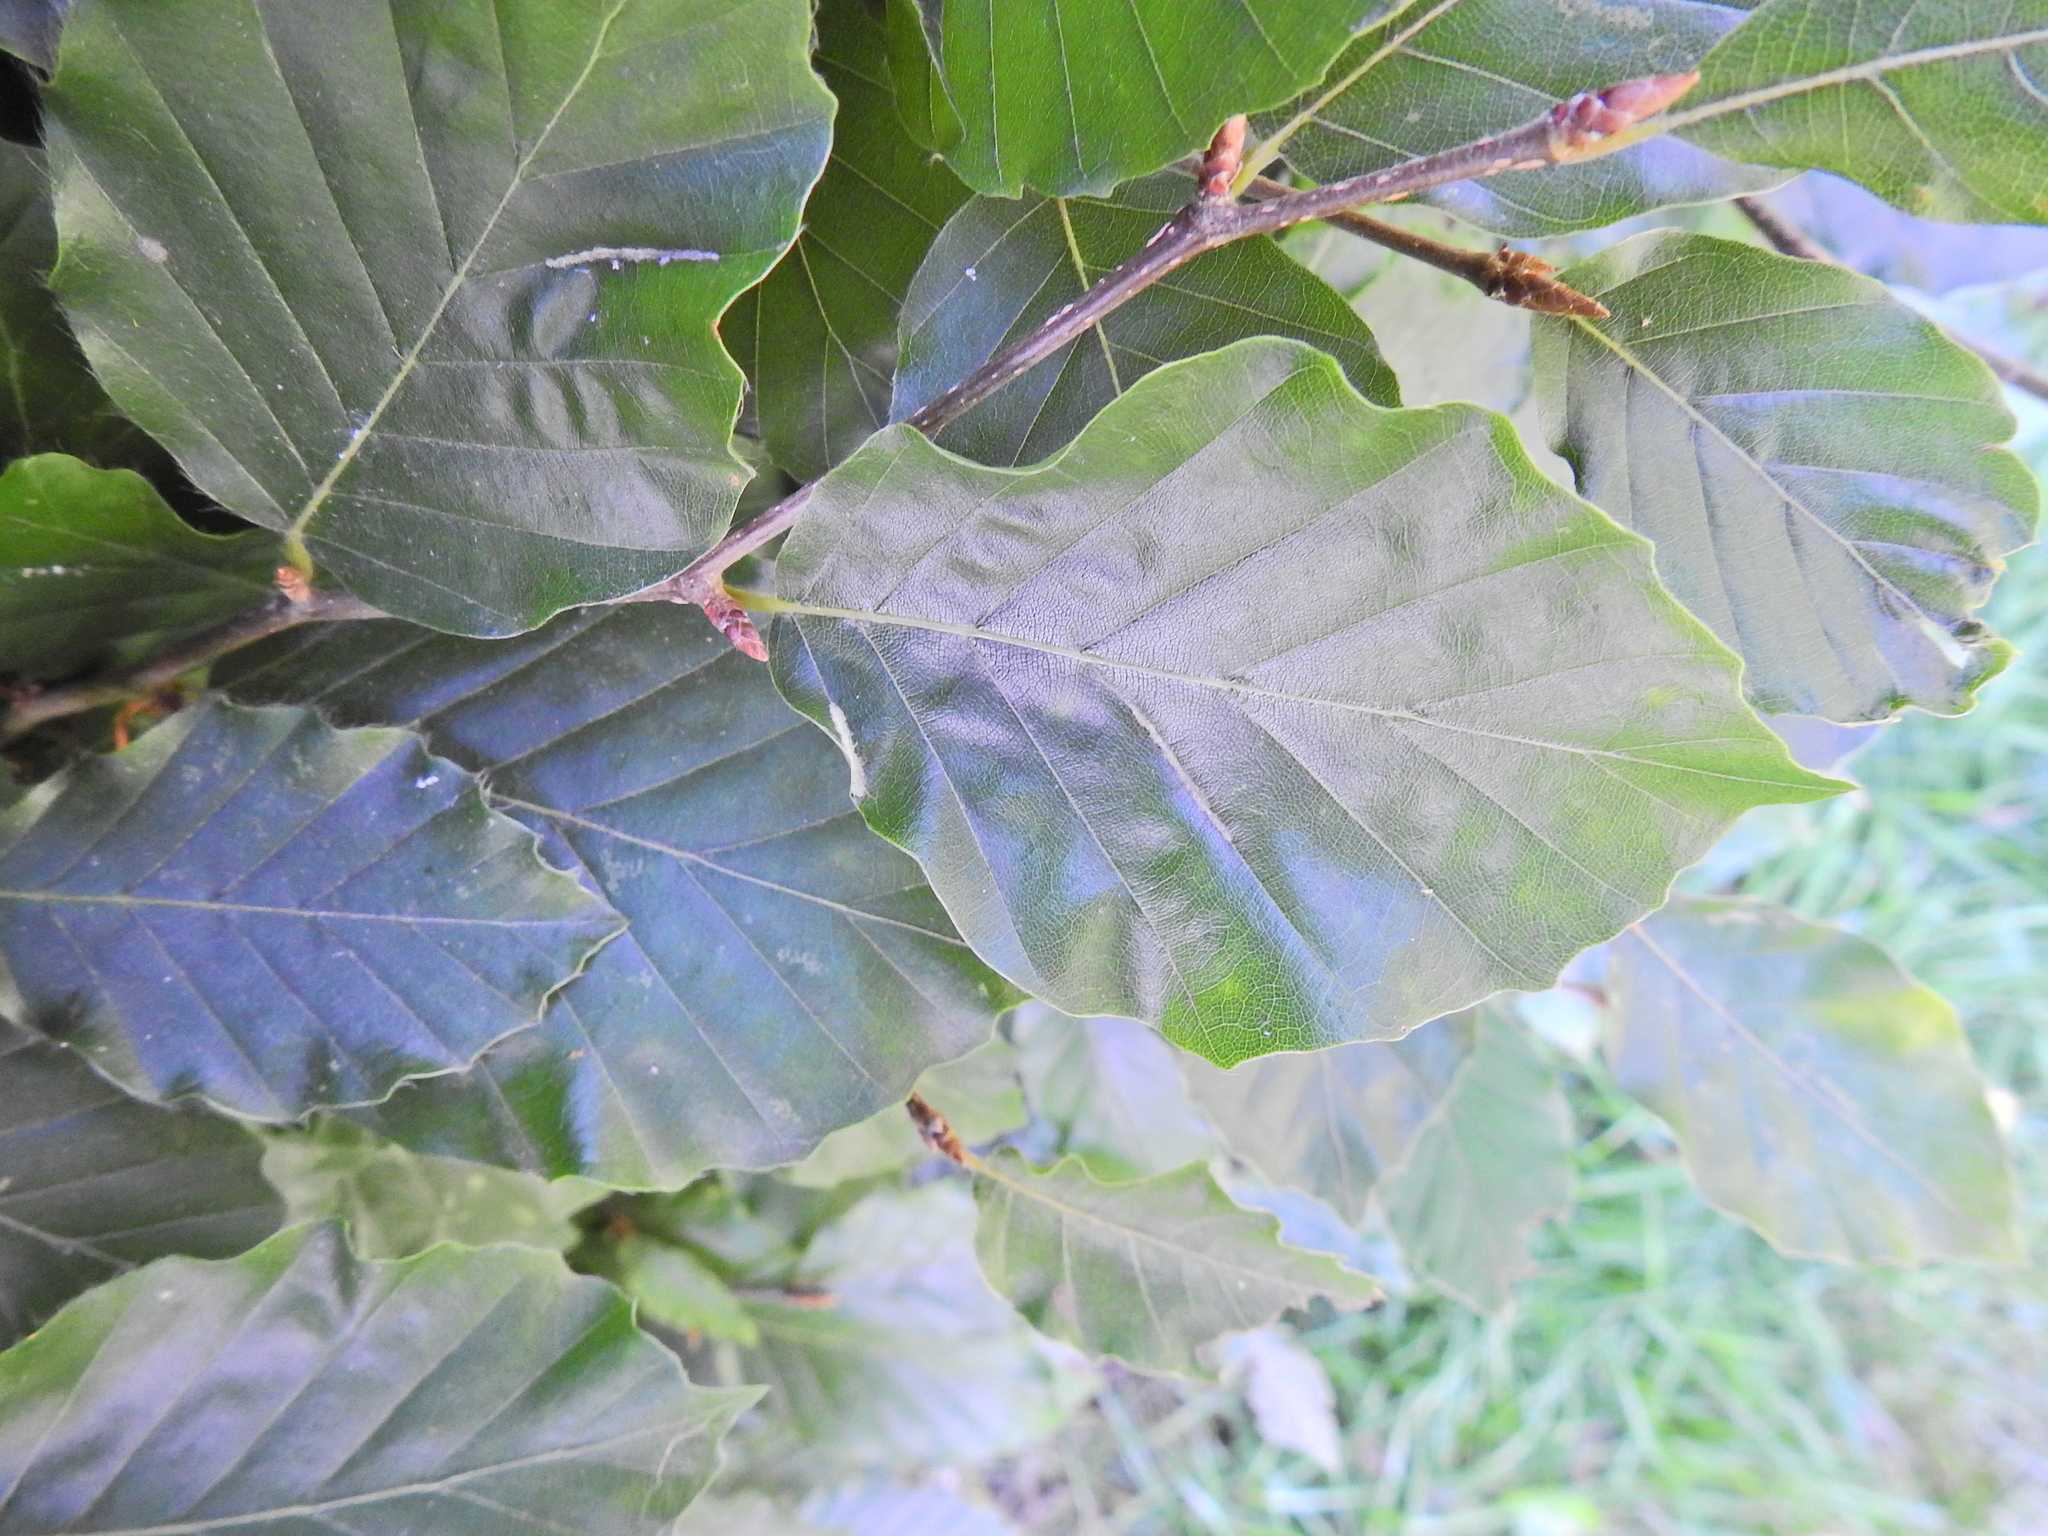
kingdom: Animalia
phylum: Arthropoda
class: Arachnida
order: Trombidiformes
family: Eriophyidae
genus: Aceria
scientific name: Aceria nervisequa
